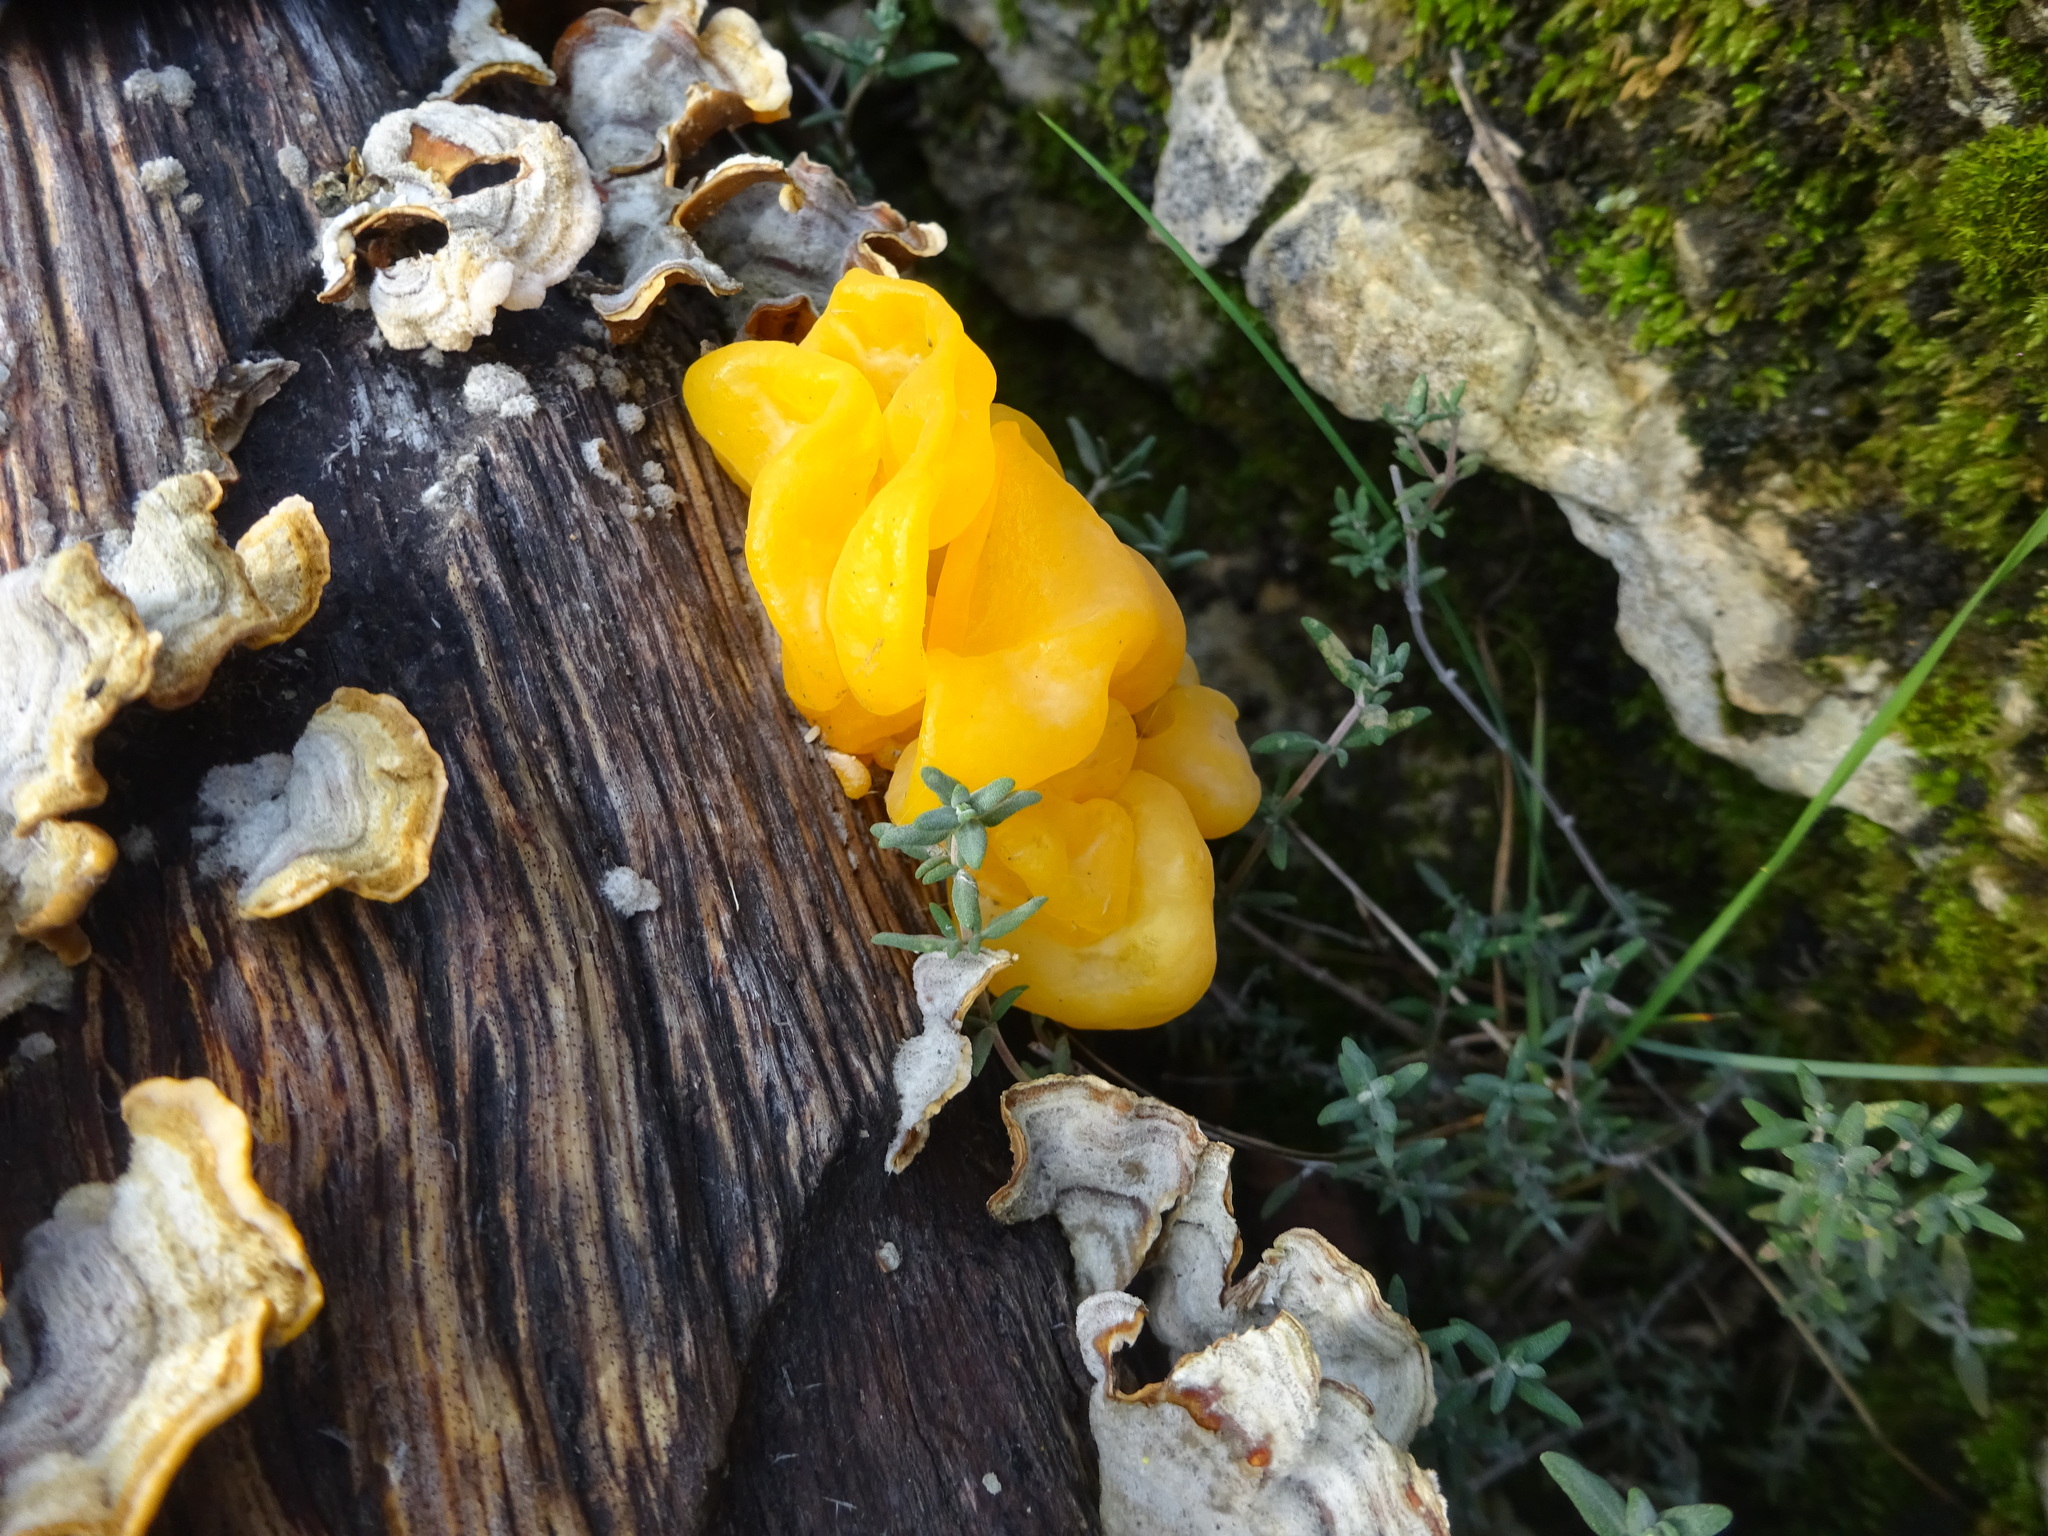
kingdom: Fungi
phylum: Basidiomycota
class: Tremellomycetes
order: Tremellales
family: Naemateliaceae
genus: Naematelia
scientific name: Naematelia aurantia
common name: Golden ear
